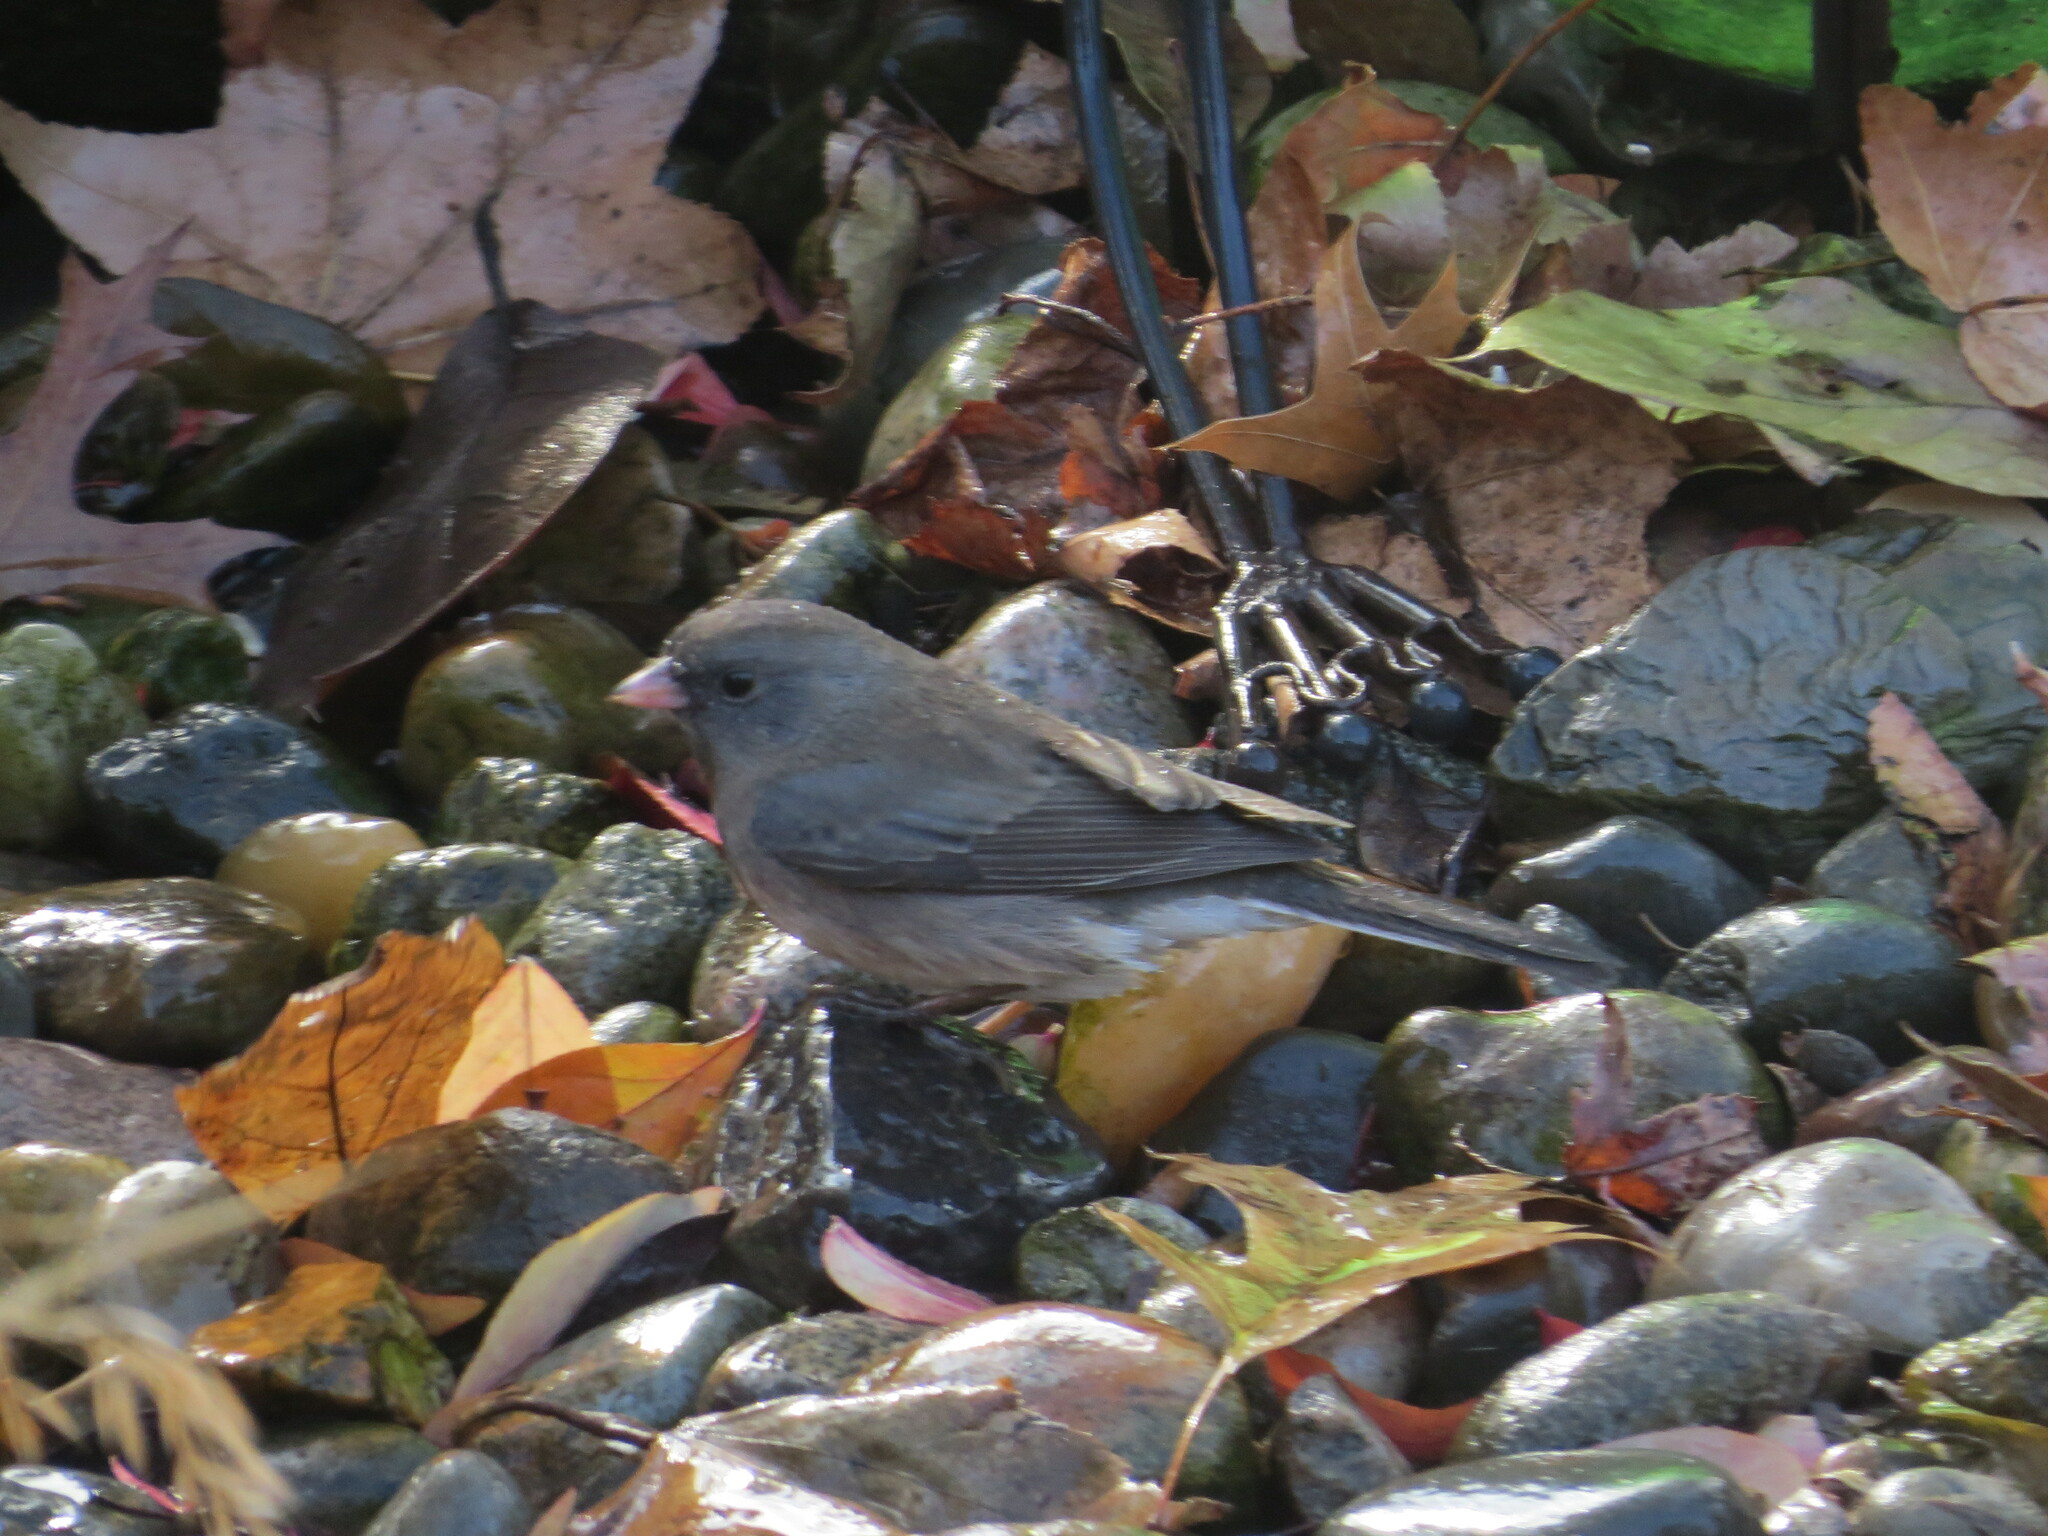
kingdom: Animalia
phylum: Chordata
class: Aves
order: Passeriformes
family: Passerellidae
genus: Junco
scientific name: Junco hyemalis
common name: Dark-eyed junco
